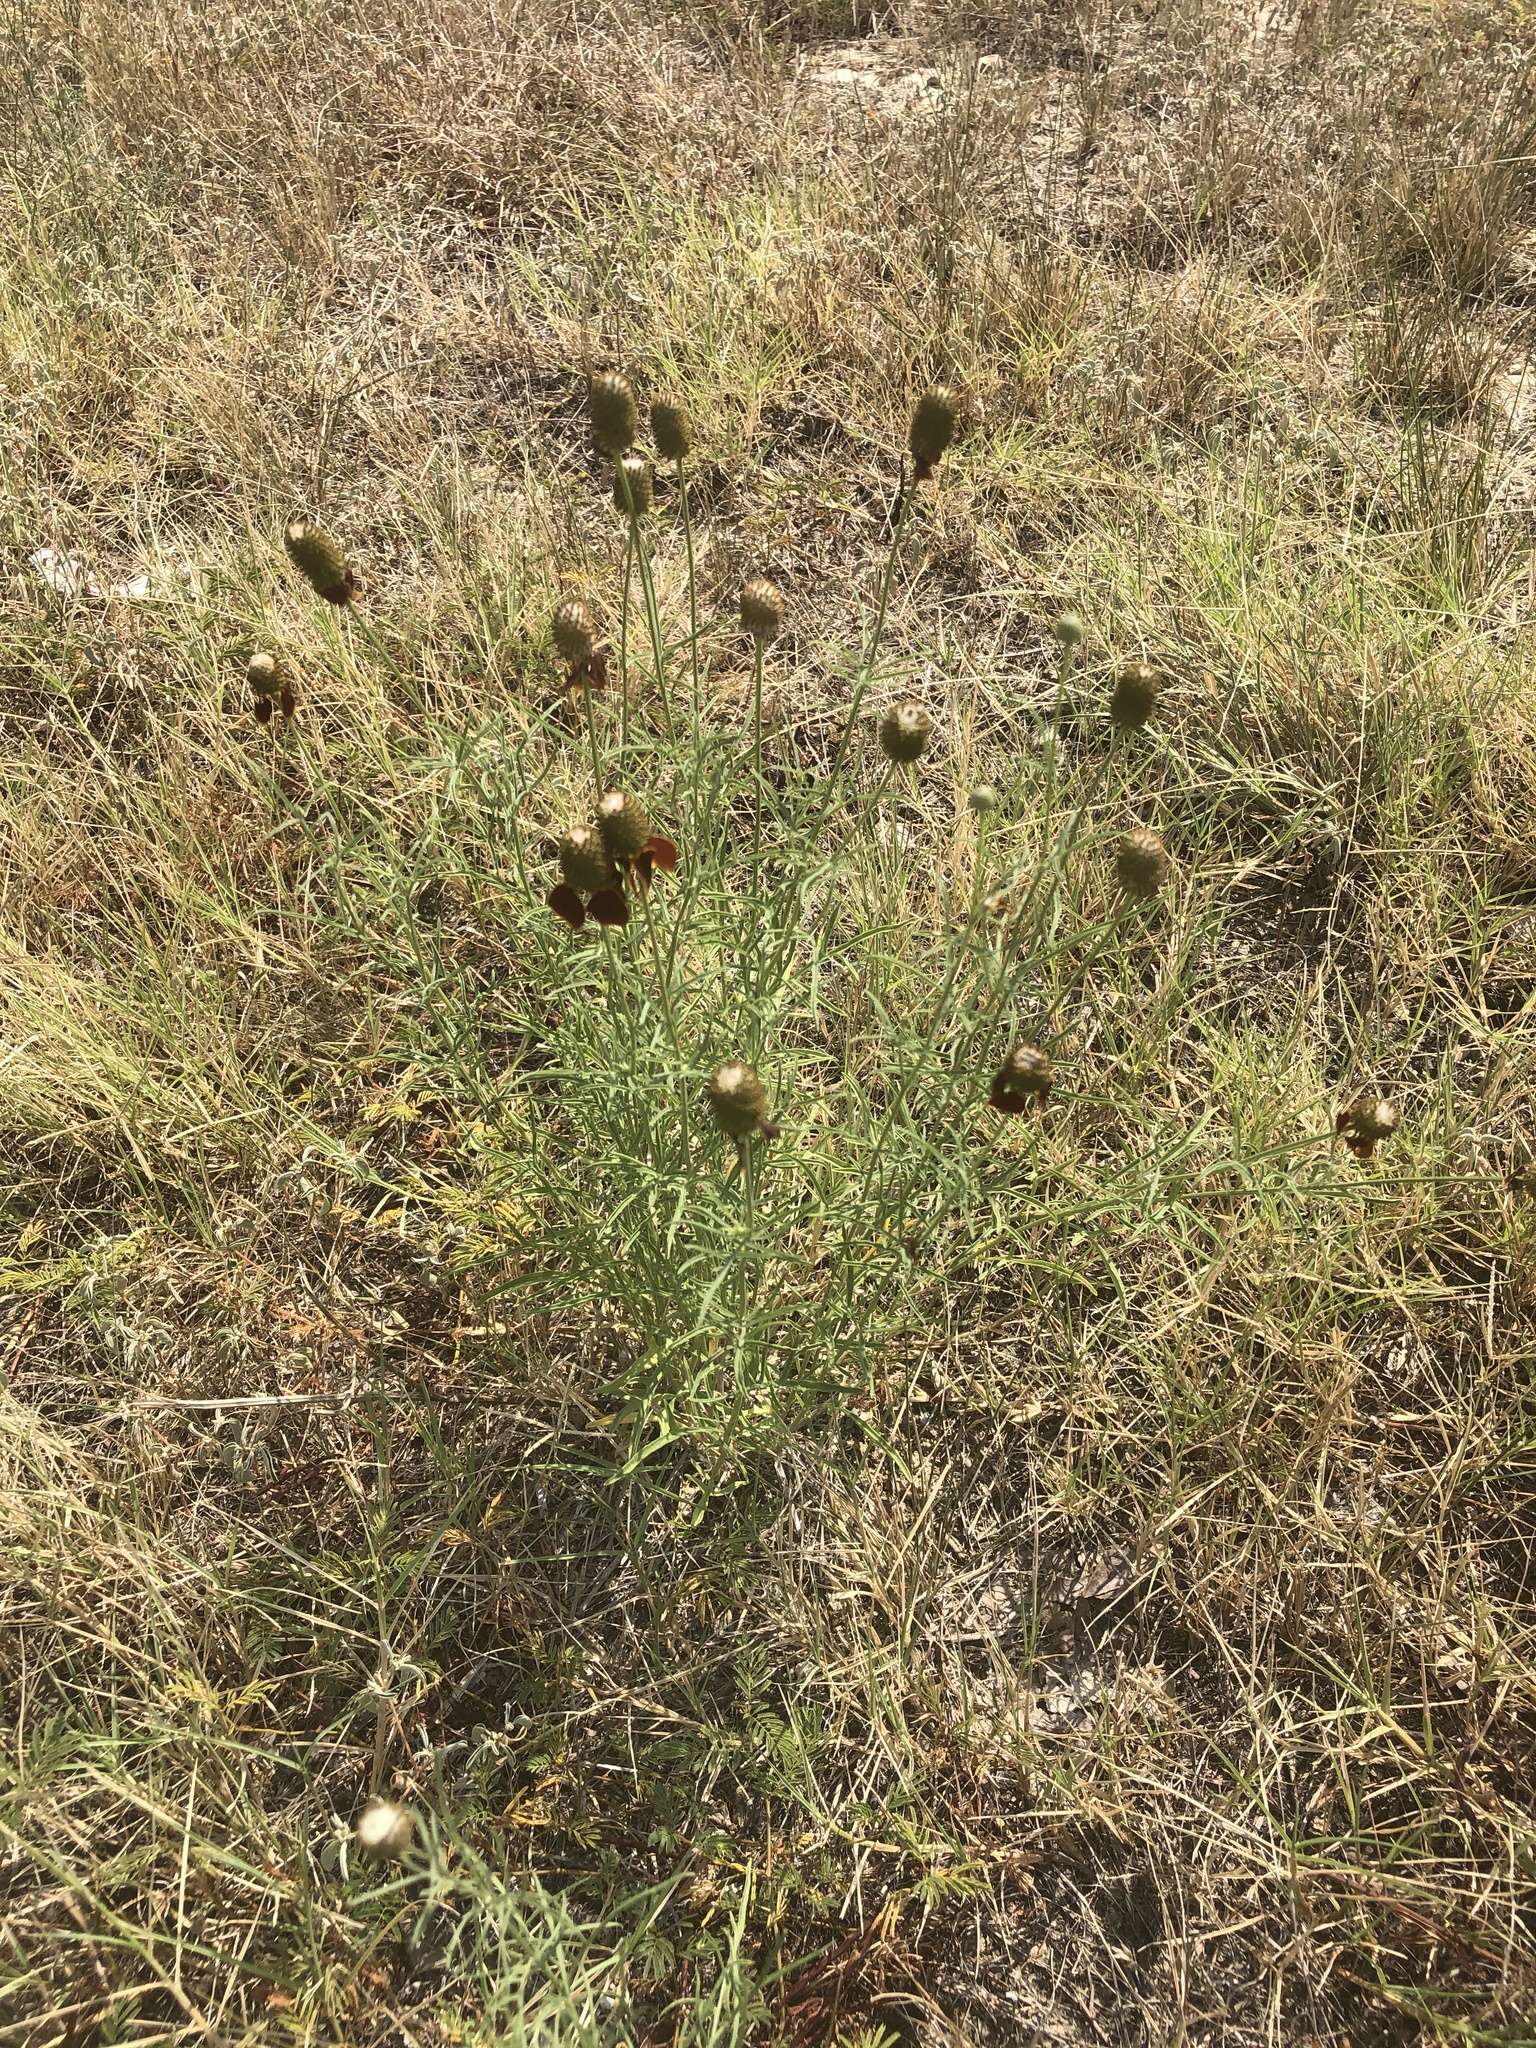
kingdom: Plantae
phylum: Tracheophyta
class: Magnoliopsida
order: Asterales
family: Asteraceae
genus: Ratibida
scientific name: Ratibida columnifera
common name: Prairie coneflower
